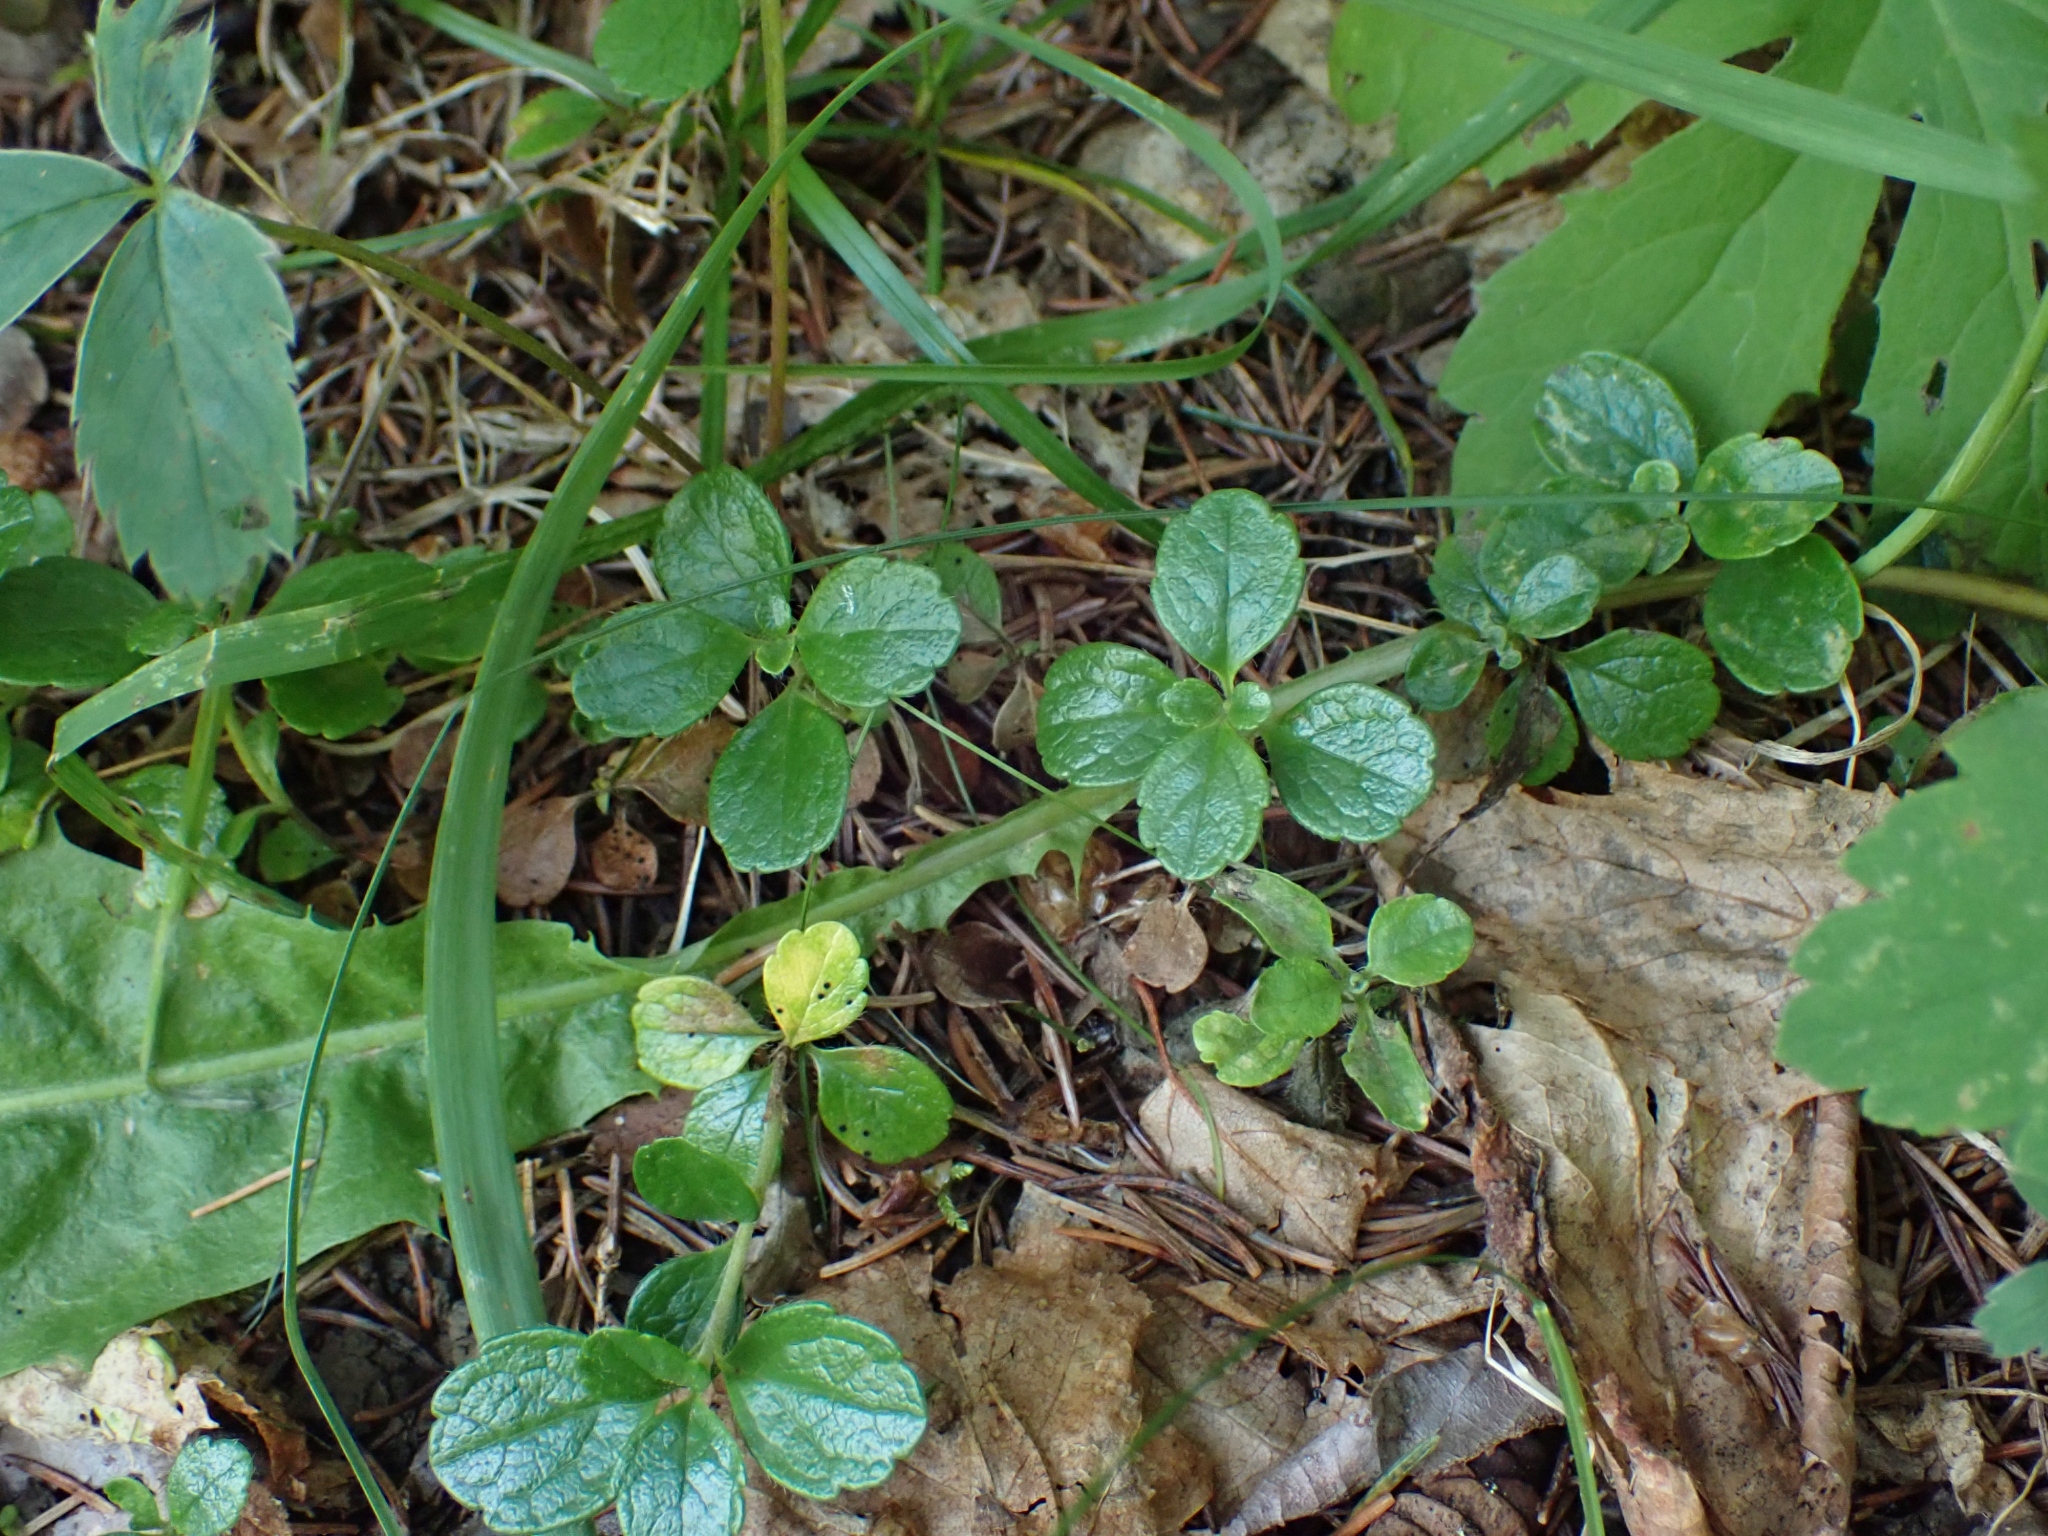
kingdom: Plantae
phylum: Tracheophyta
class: Magnoliopsida
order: Dipsacales
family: Caprifoliaceae
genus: Linnaea
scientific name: Linnaea borealis
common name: Twinflower
